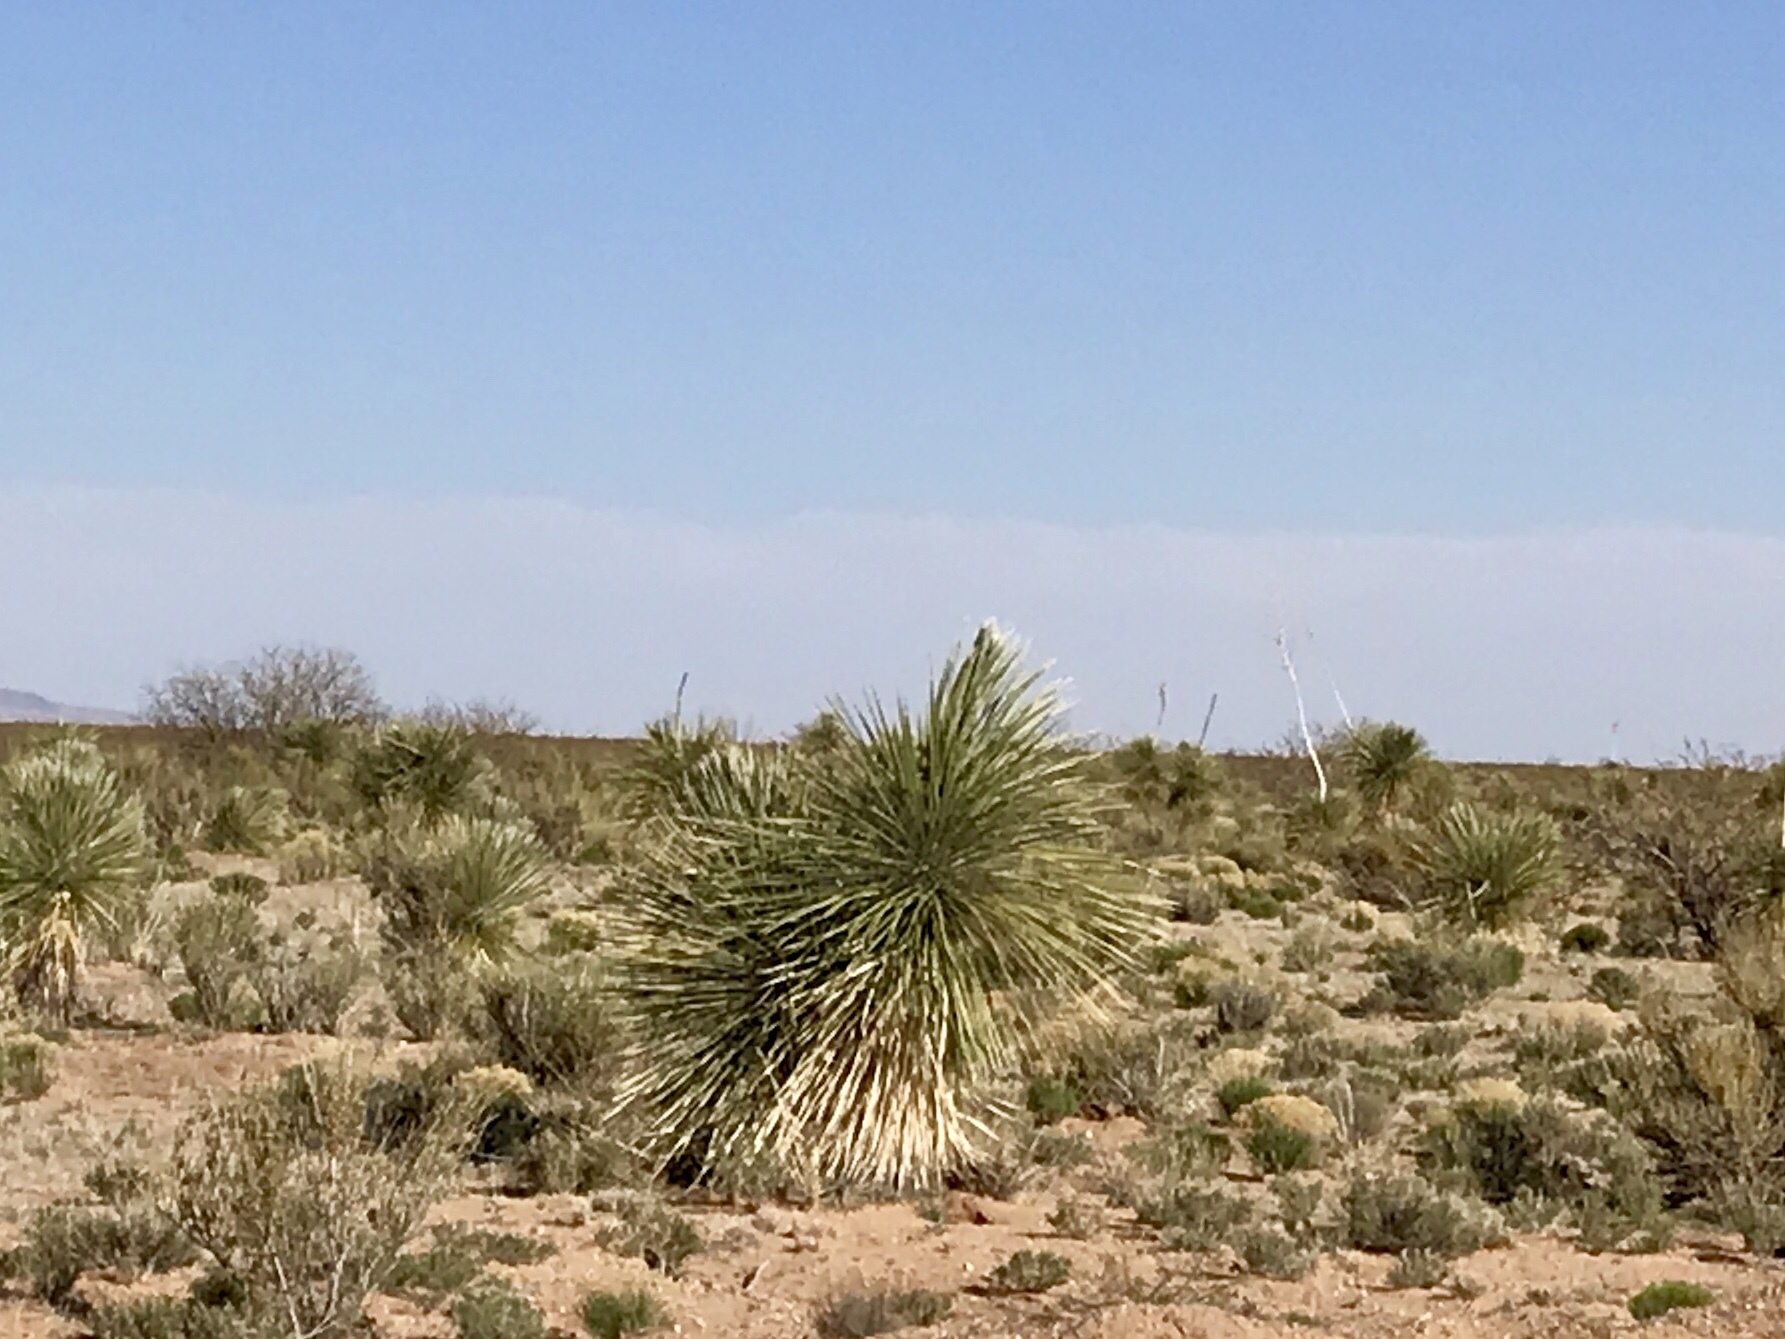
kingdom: Plantae
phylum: Tracheophyta
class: Liliopsida
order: Asparagales
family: Asparagaceae
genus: Yucca
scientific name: Yucca elata
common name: Palmella
